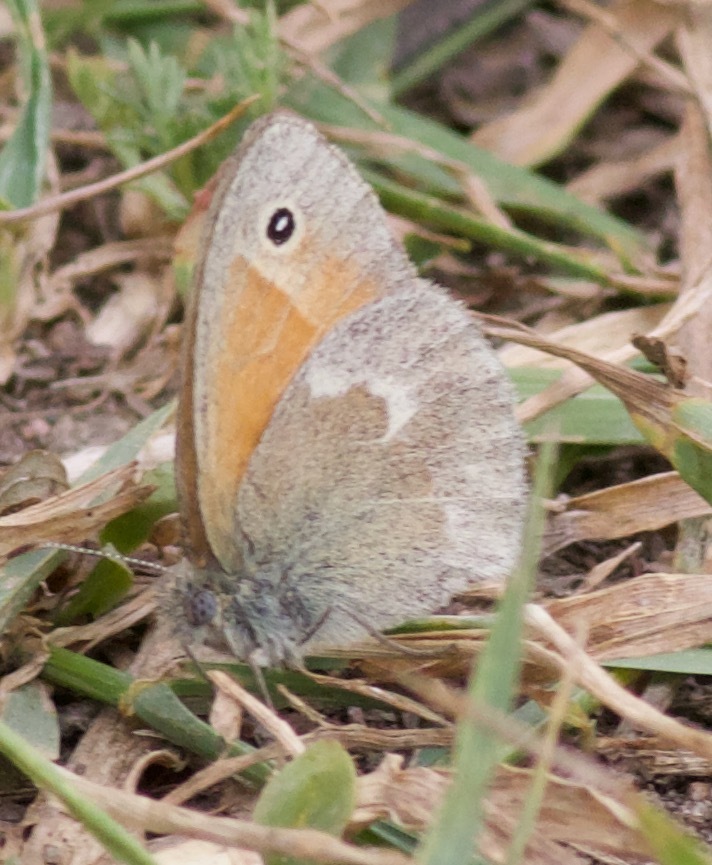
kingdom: Animalia
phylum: Arthropoda
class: Insecta
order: Lepidoptera
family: Nymphalidae
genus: Coenonympha
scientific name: Coenonympha california
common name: Common ringlet
